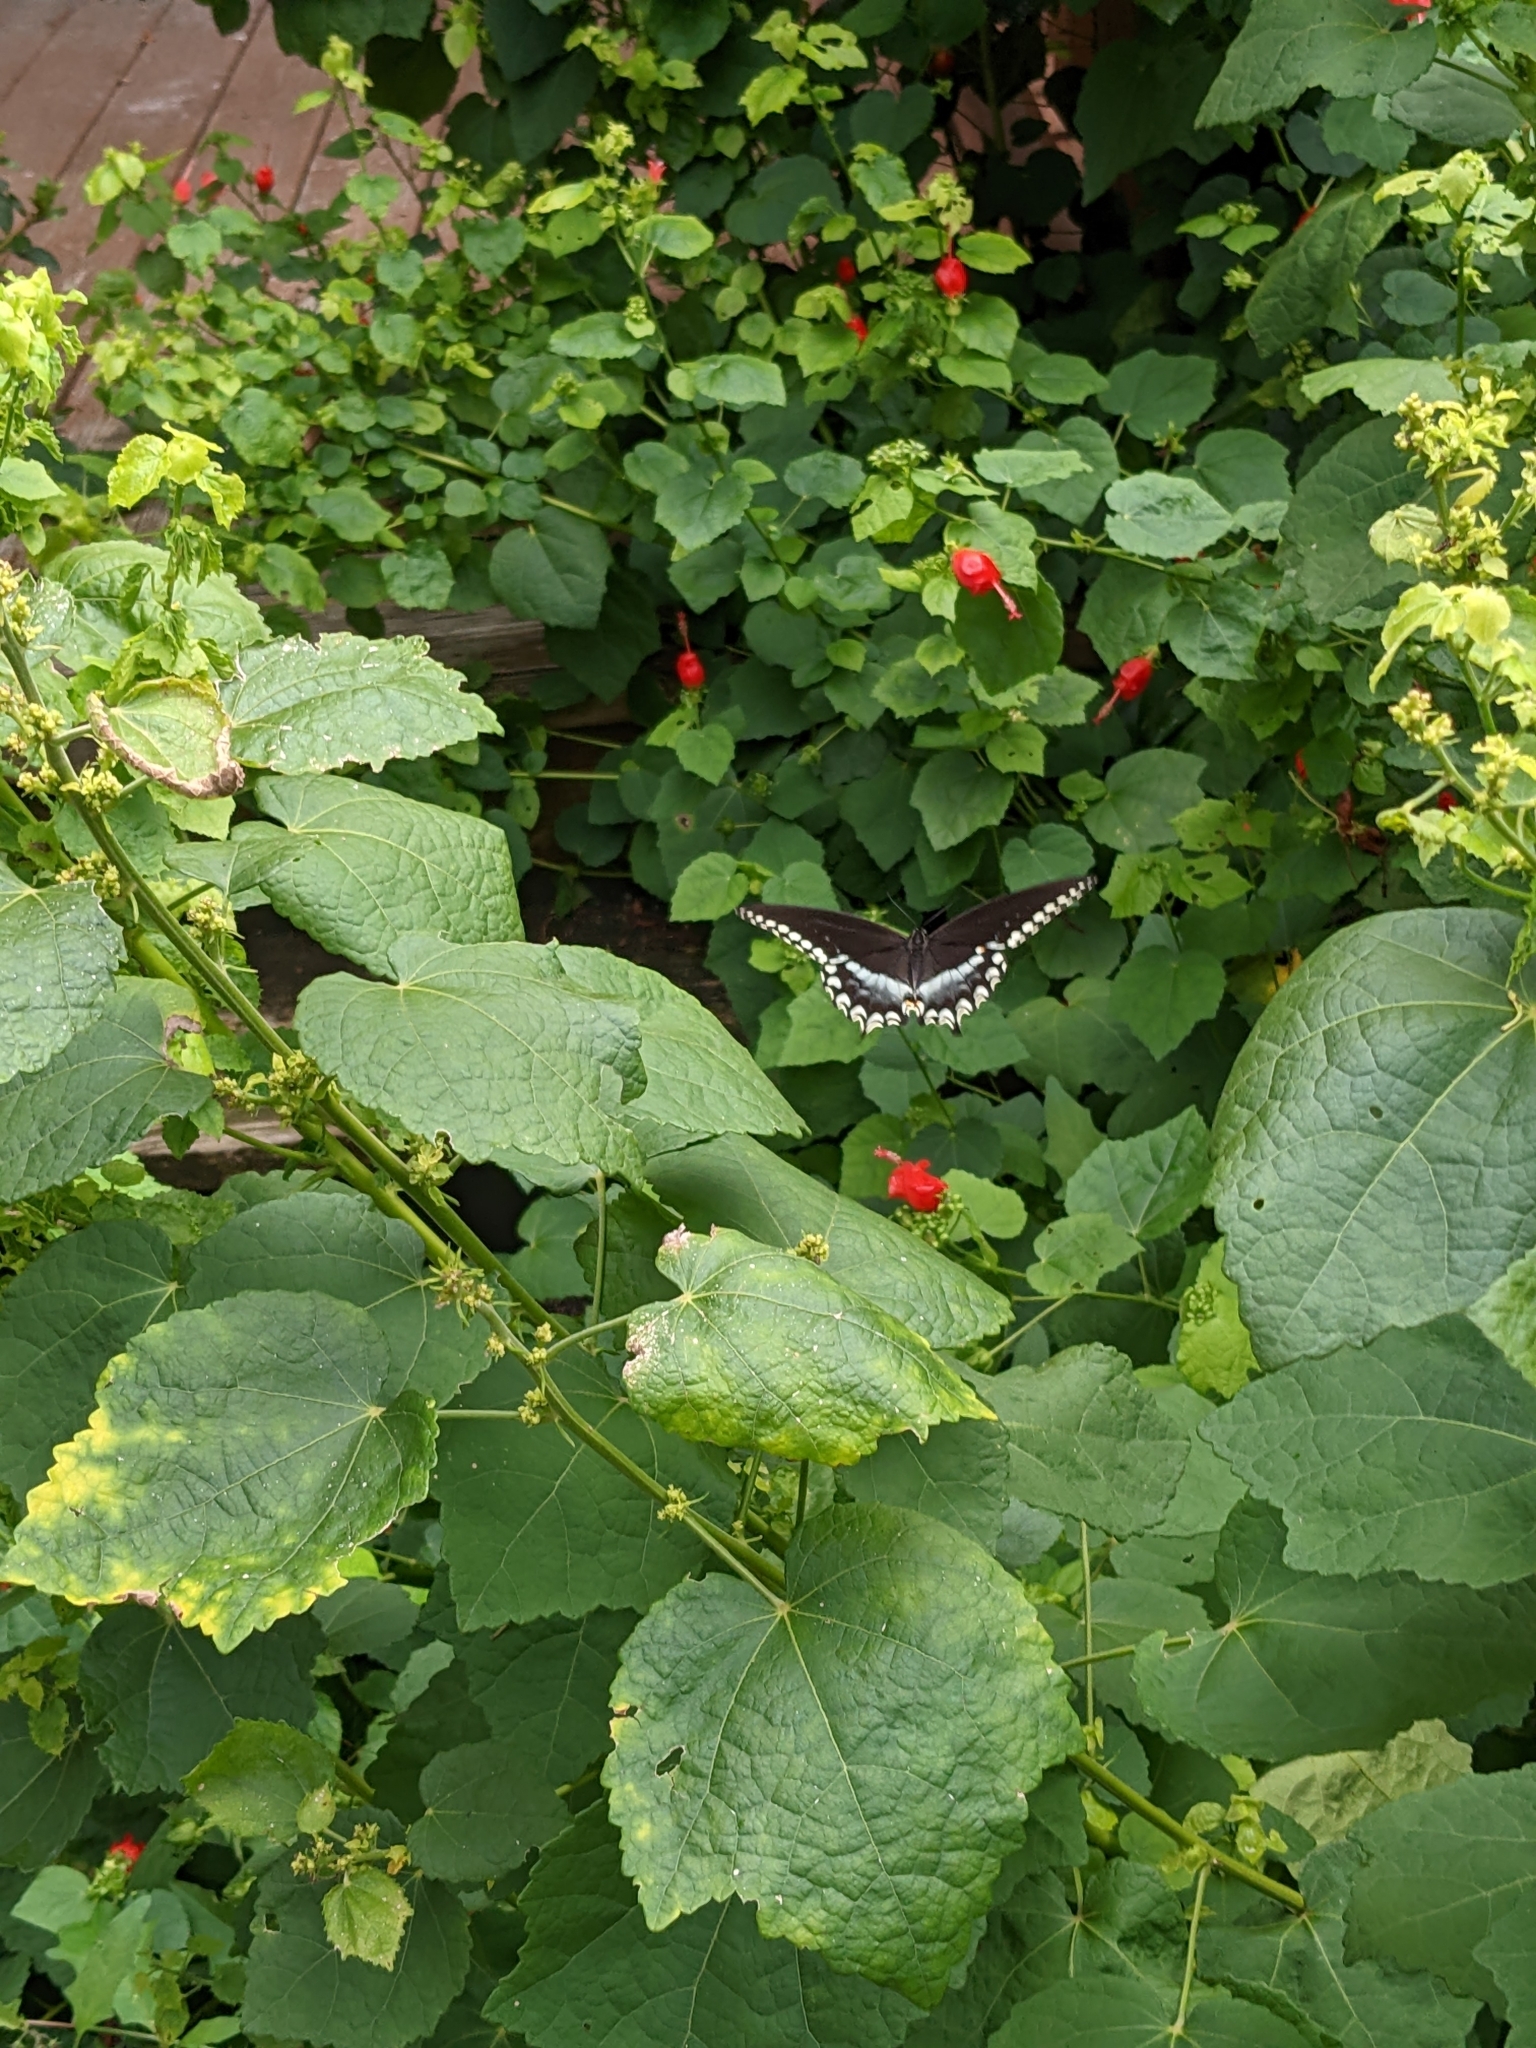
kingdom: Animalia
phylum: Arthropoda
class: Insecta
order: Lepidoptera
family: Papilionidae
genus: Papilio
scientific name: Papilio troilus
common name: Spicebush swallowtail
